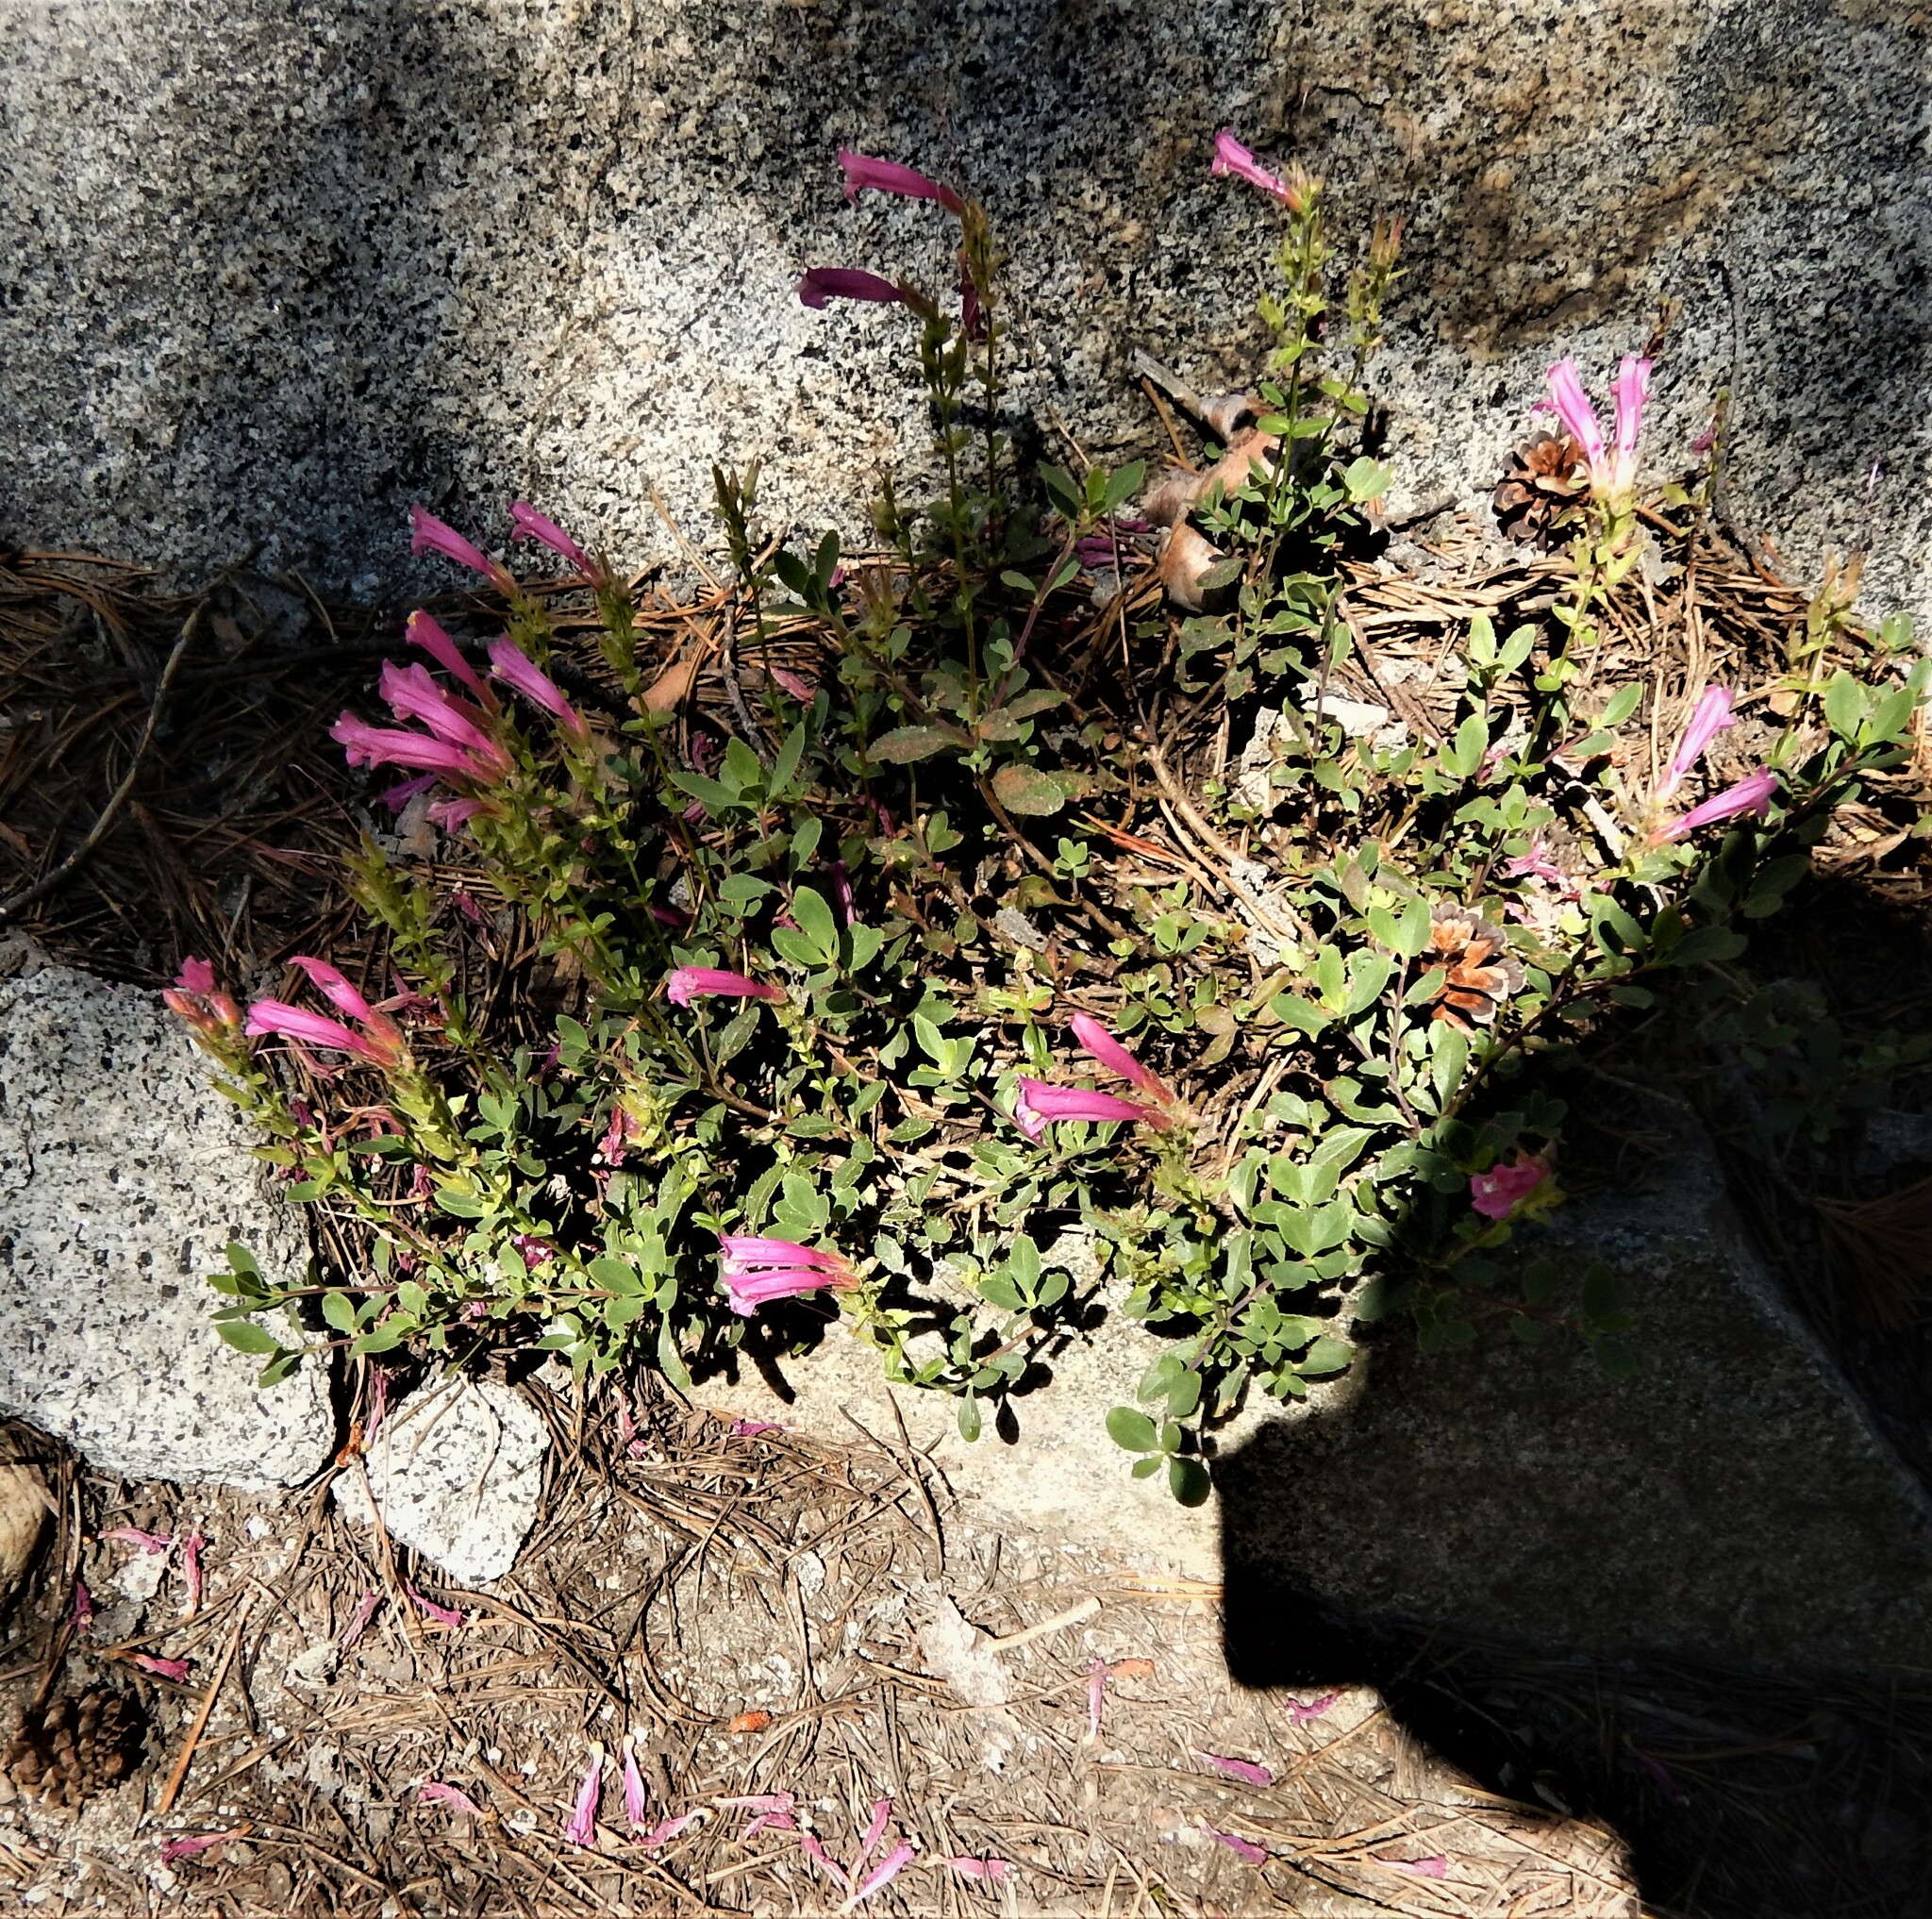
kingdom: Plantae
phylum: Tracheophyta
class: Magnoliopsida
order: Lamiales
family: Plantaginaceae
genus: Penstemon
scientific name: Penstemon newberryi
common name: Mountain-pride
